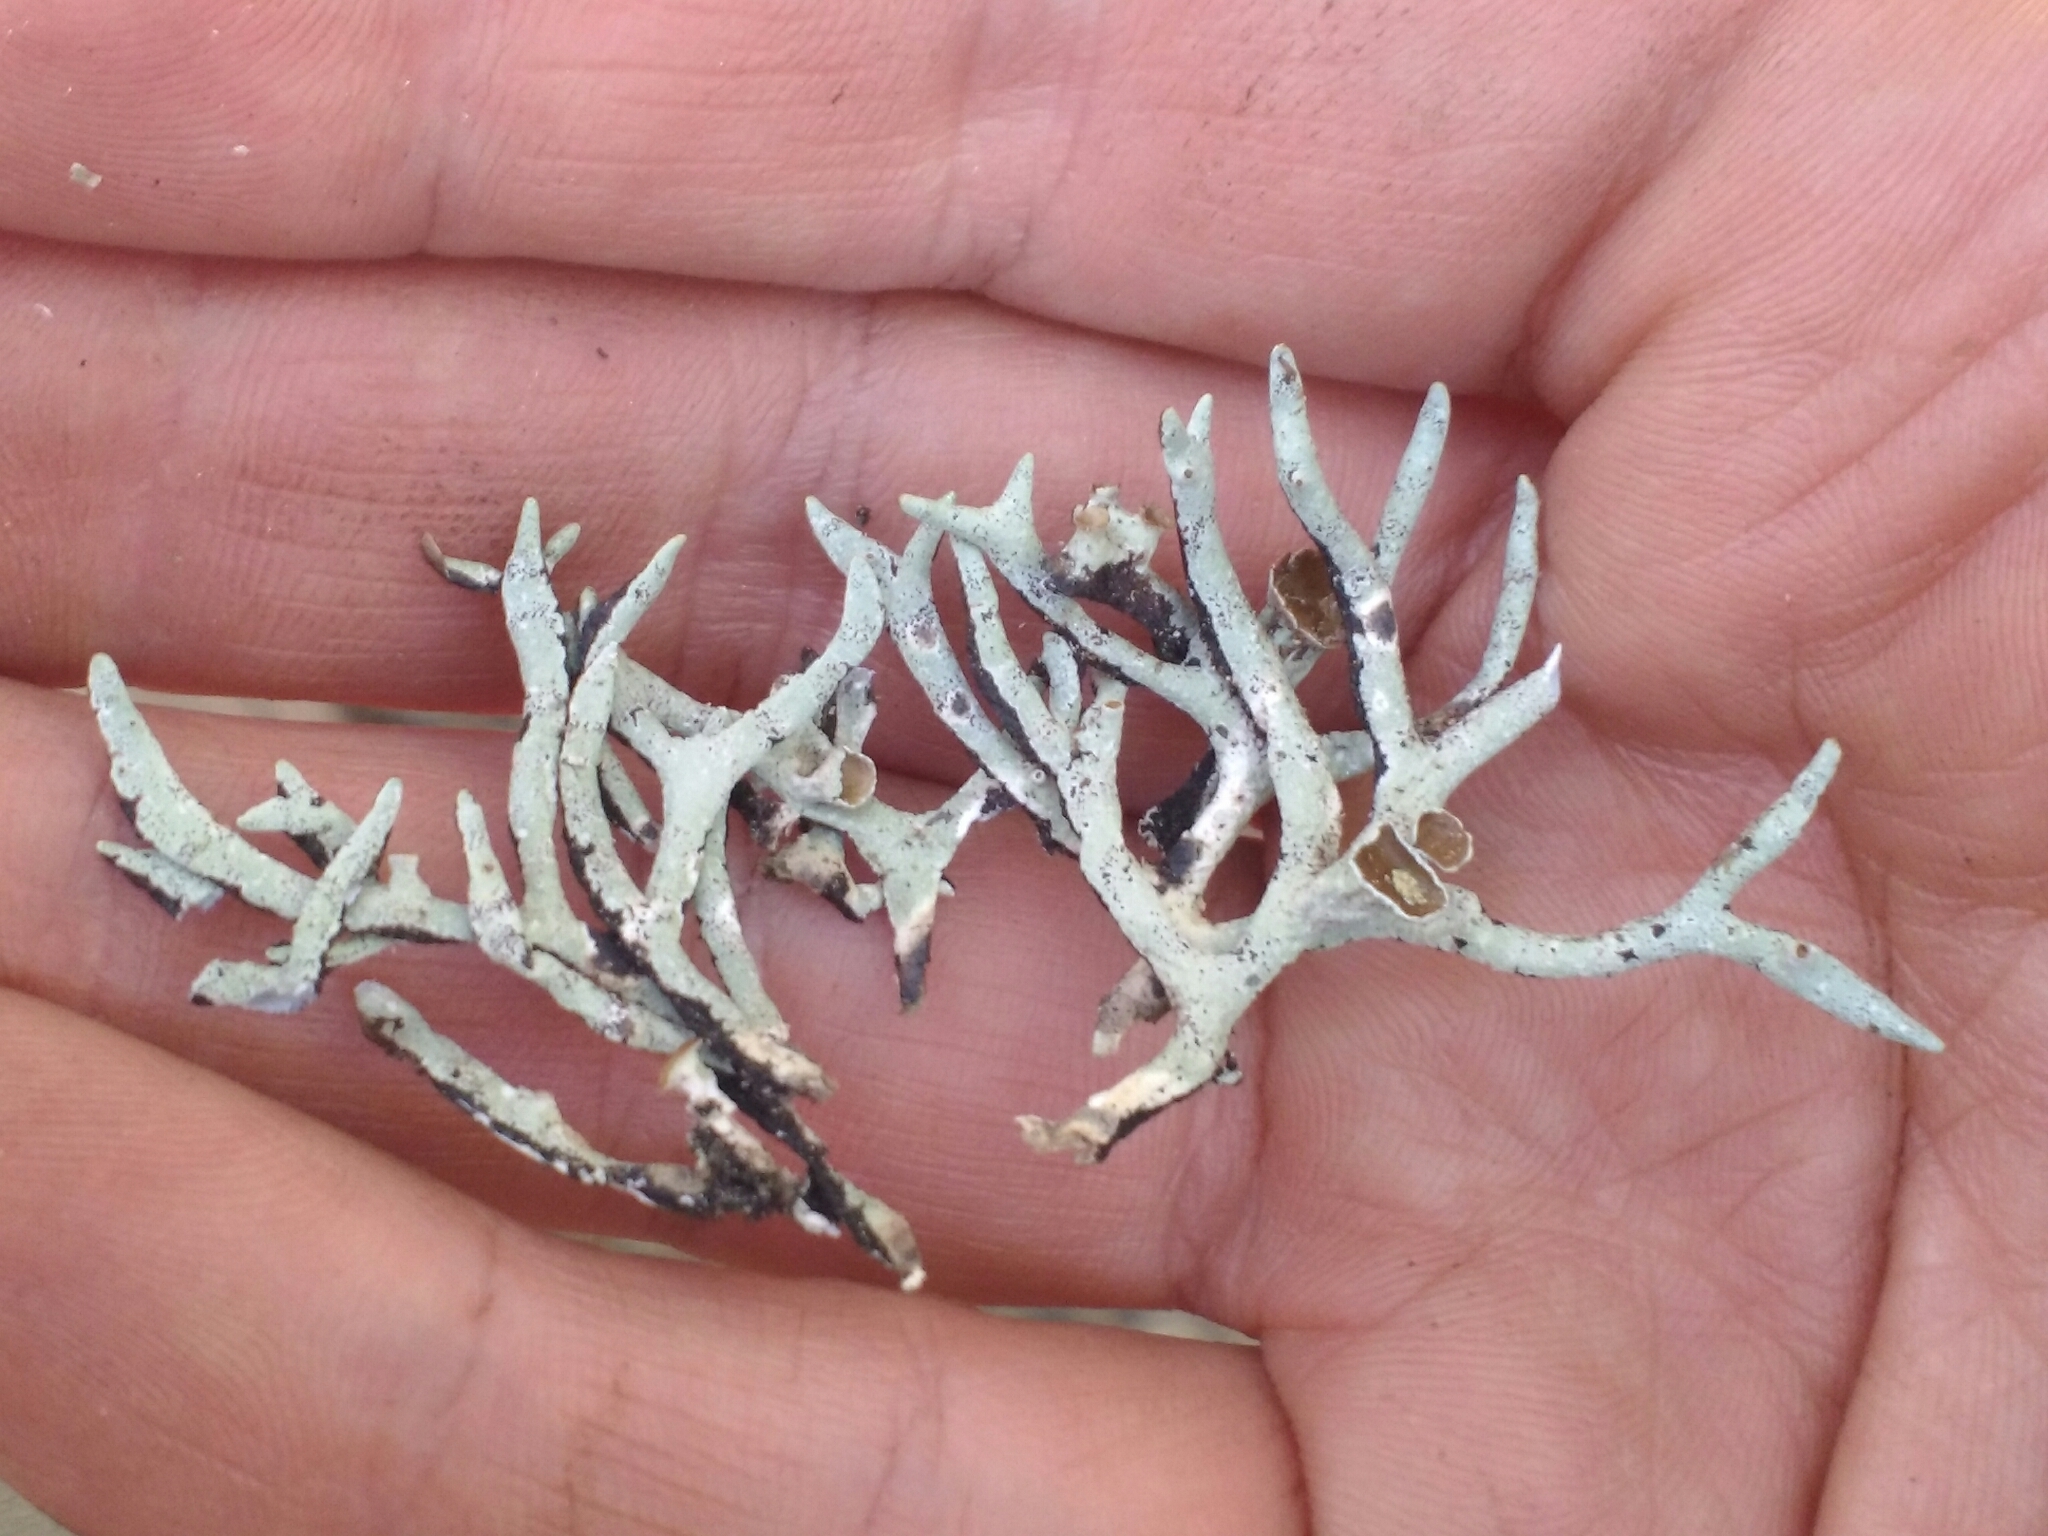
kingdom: Fungi
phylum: Ascomycota
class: Lecanoromycetes
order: Lecanorales
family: Parmeliaceae
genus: Hypogymnia
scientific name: Hypogymnia imshaugii
